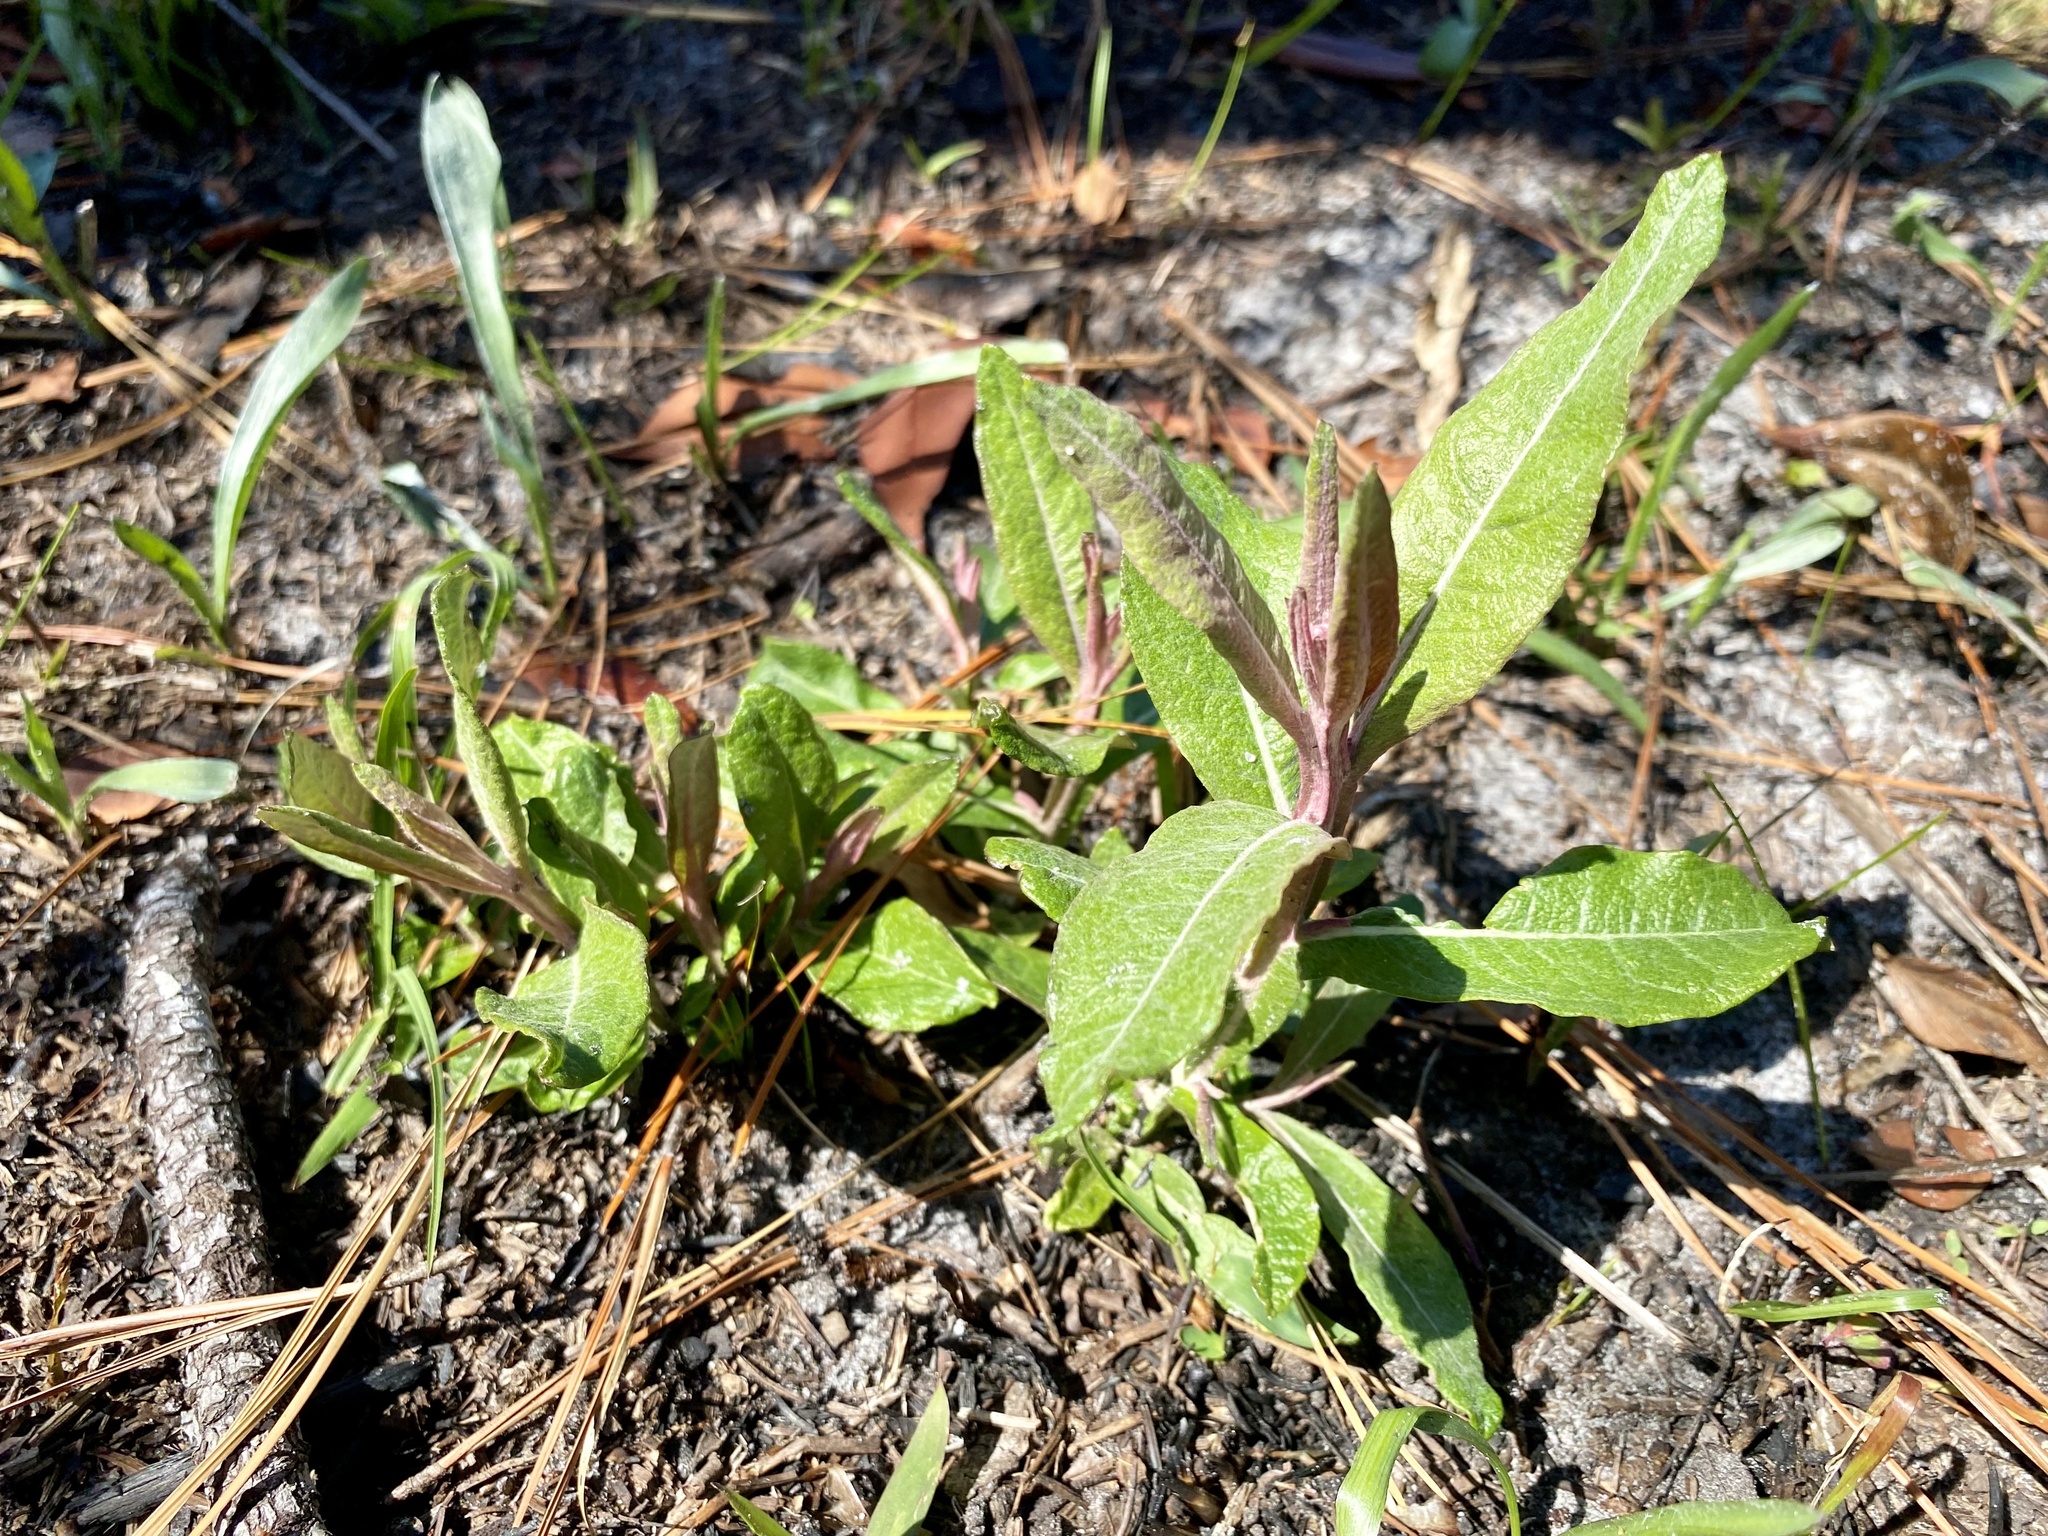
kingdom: Plantae
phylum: Tracheophyta
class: Magnoliopsida
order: Asterales
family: Asteraceae
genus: Pterocaulon
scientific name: Pterocaulon pycnostachyum
